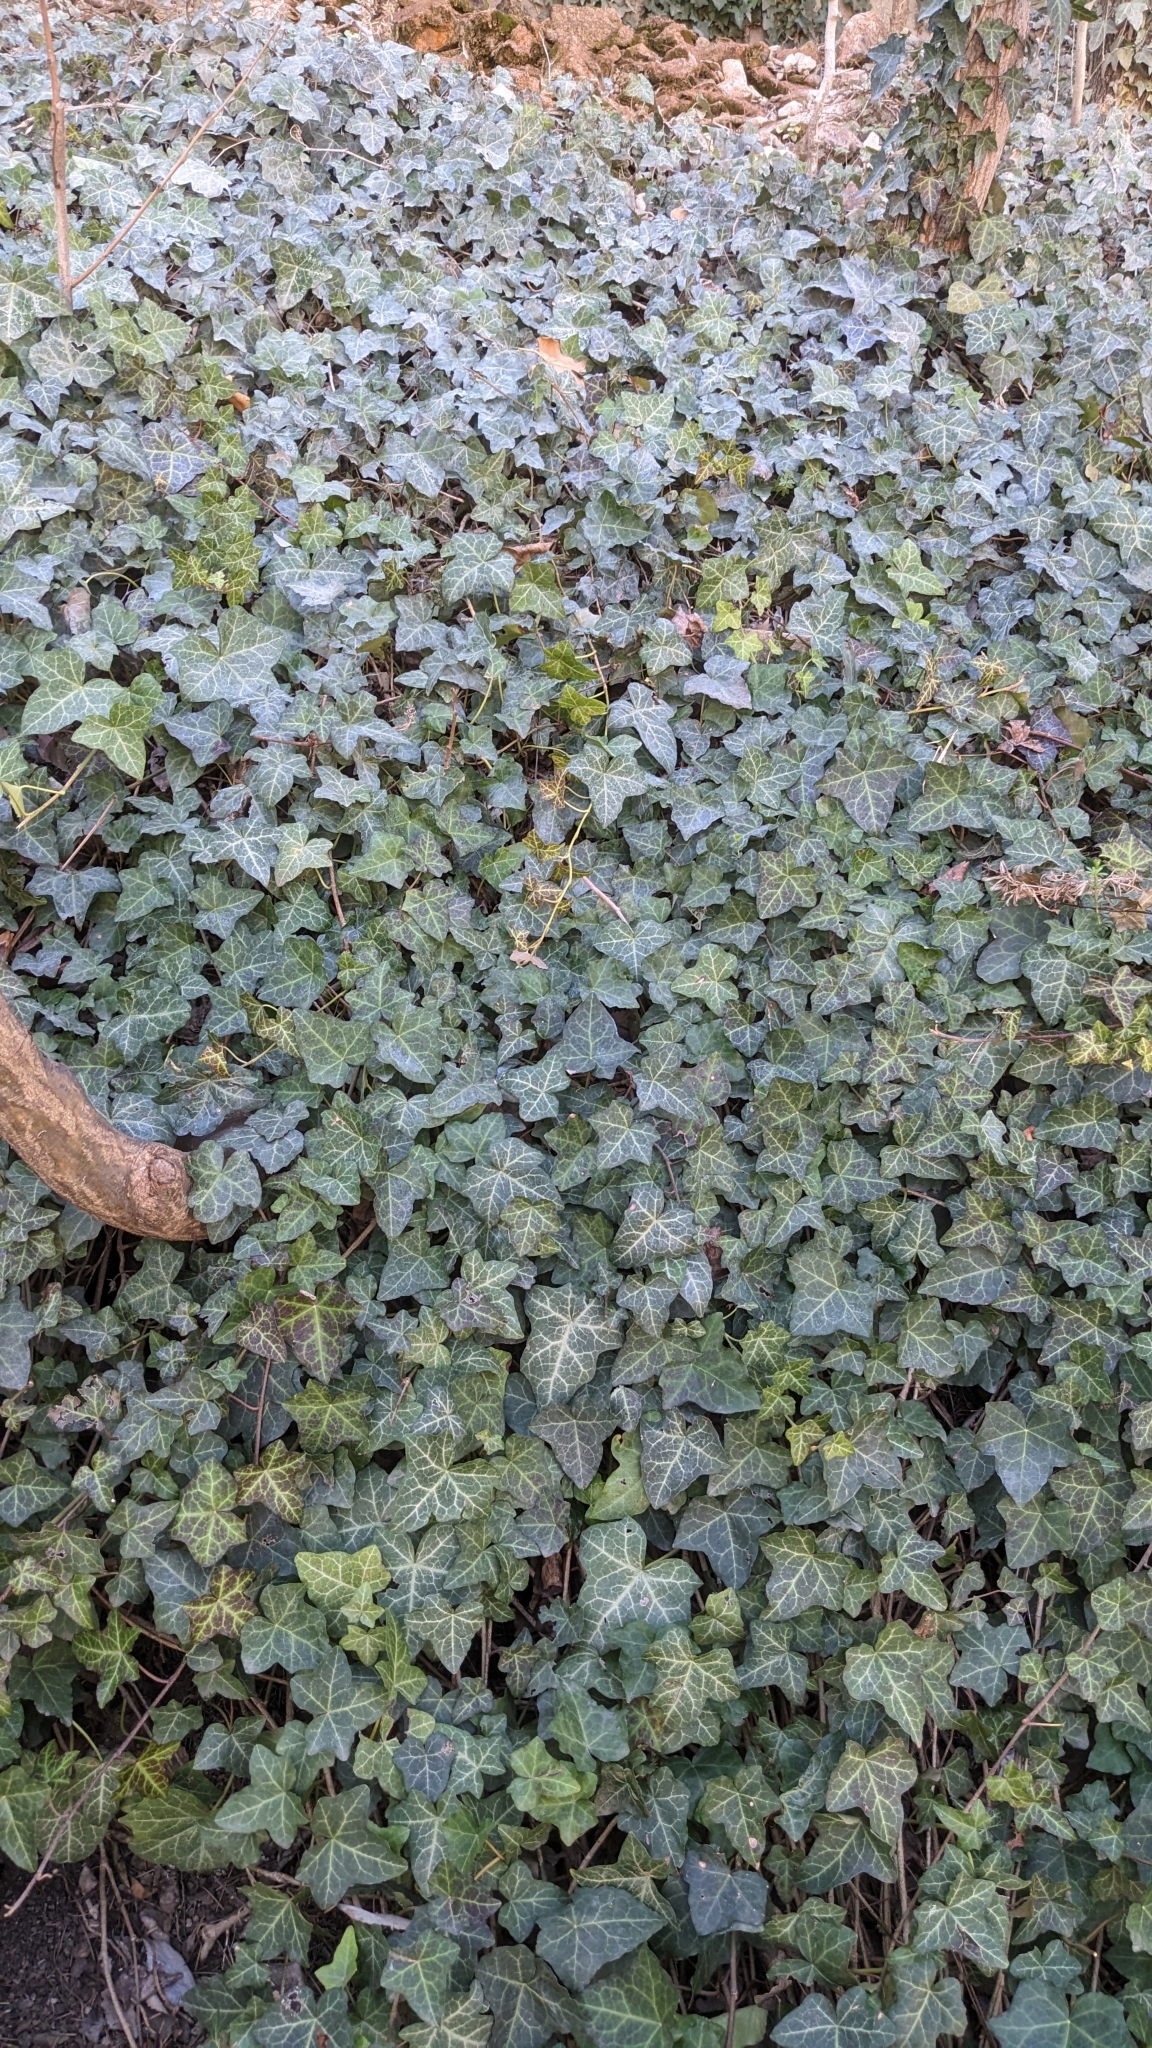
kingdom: Plantae
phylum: Tracheophyta
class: Magnoliopsida
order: Apiales
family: Araliaceae
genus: Hedera
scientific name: Hedera helix
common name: Ivy
